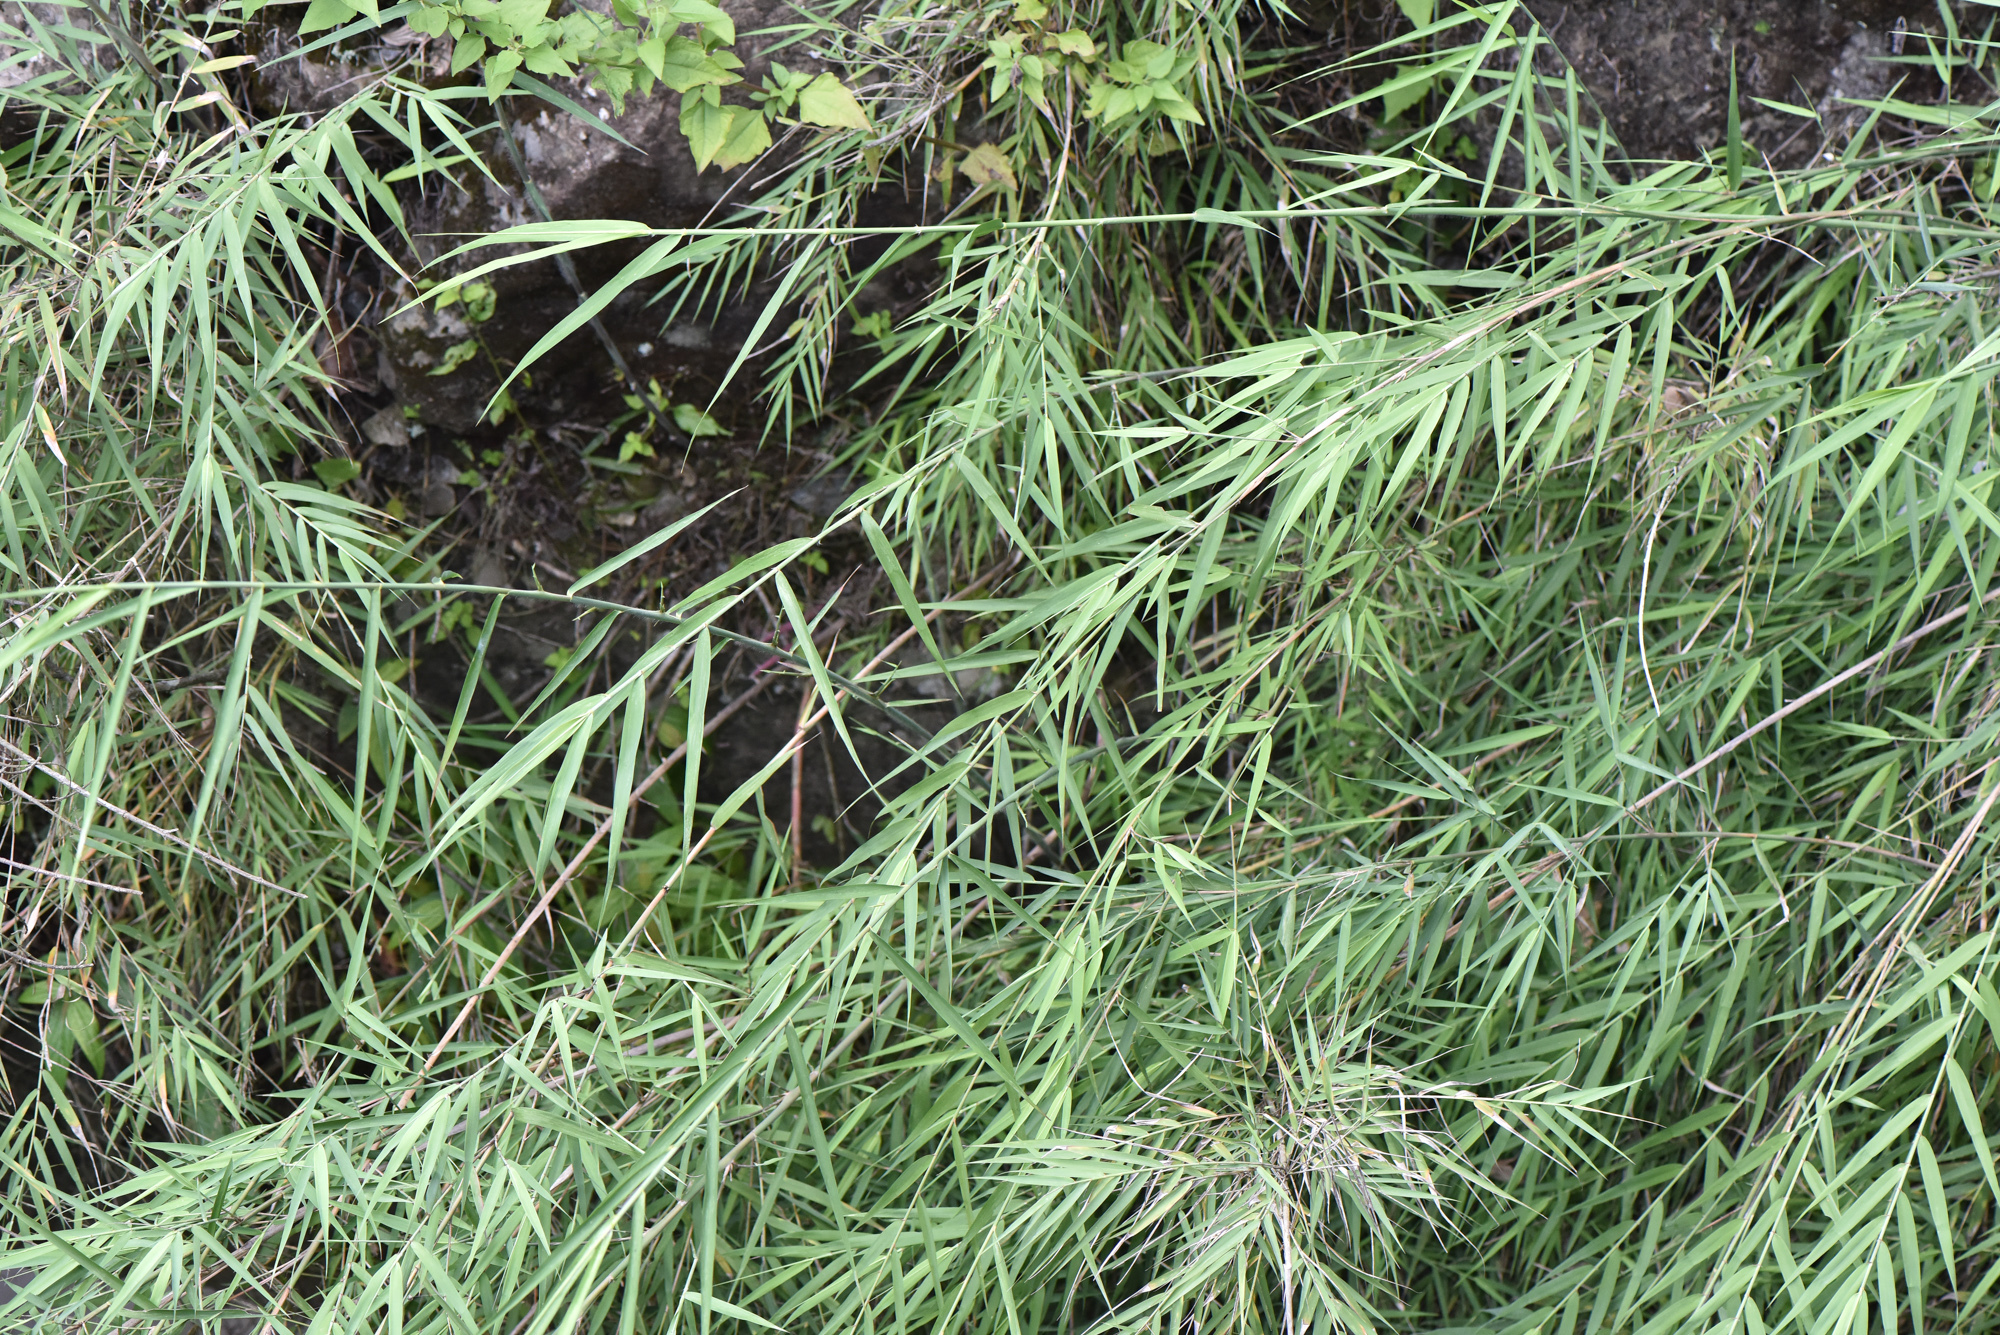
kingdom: Plantae
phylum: Tracheophyta
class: Liliopsida
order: Poales
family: Poaceae
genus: Arundo
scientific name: Arundo formosana
